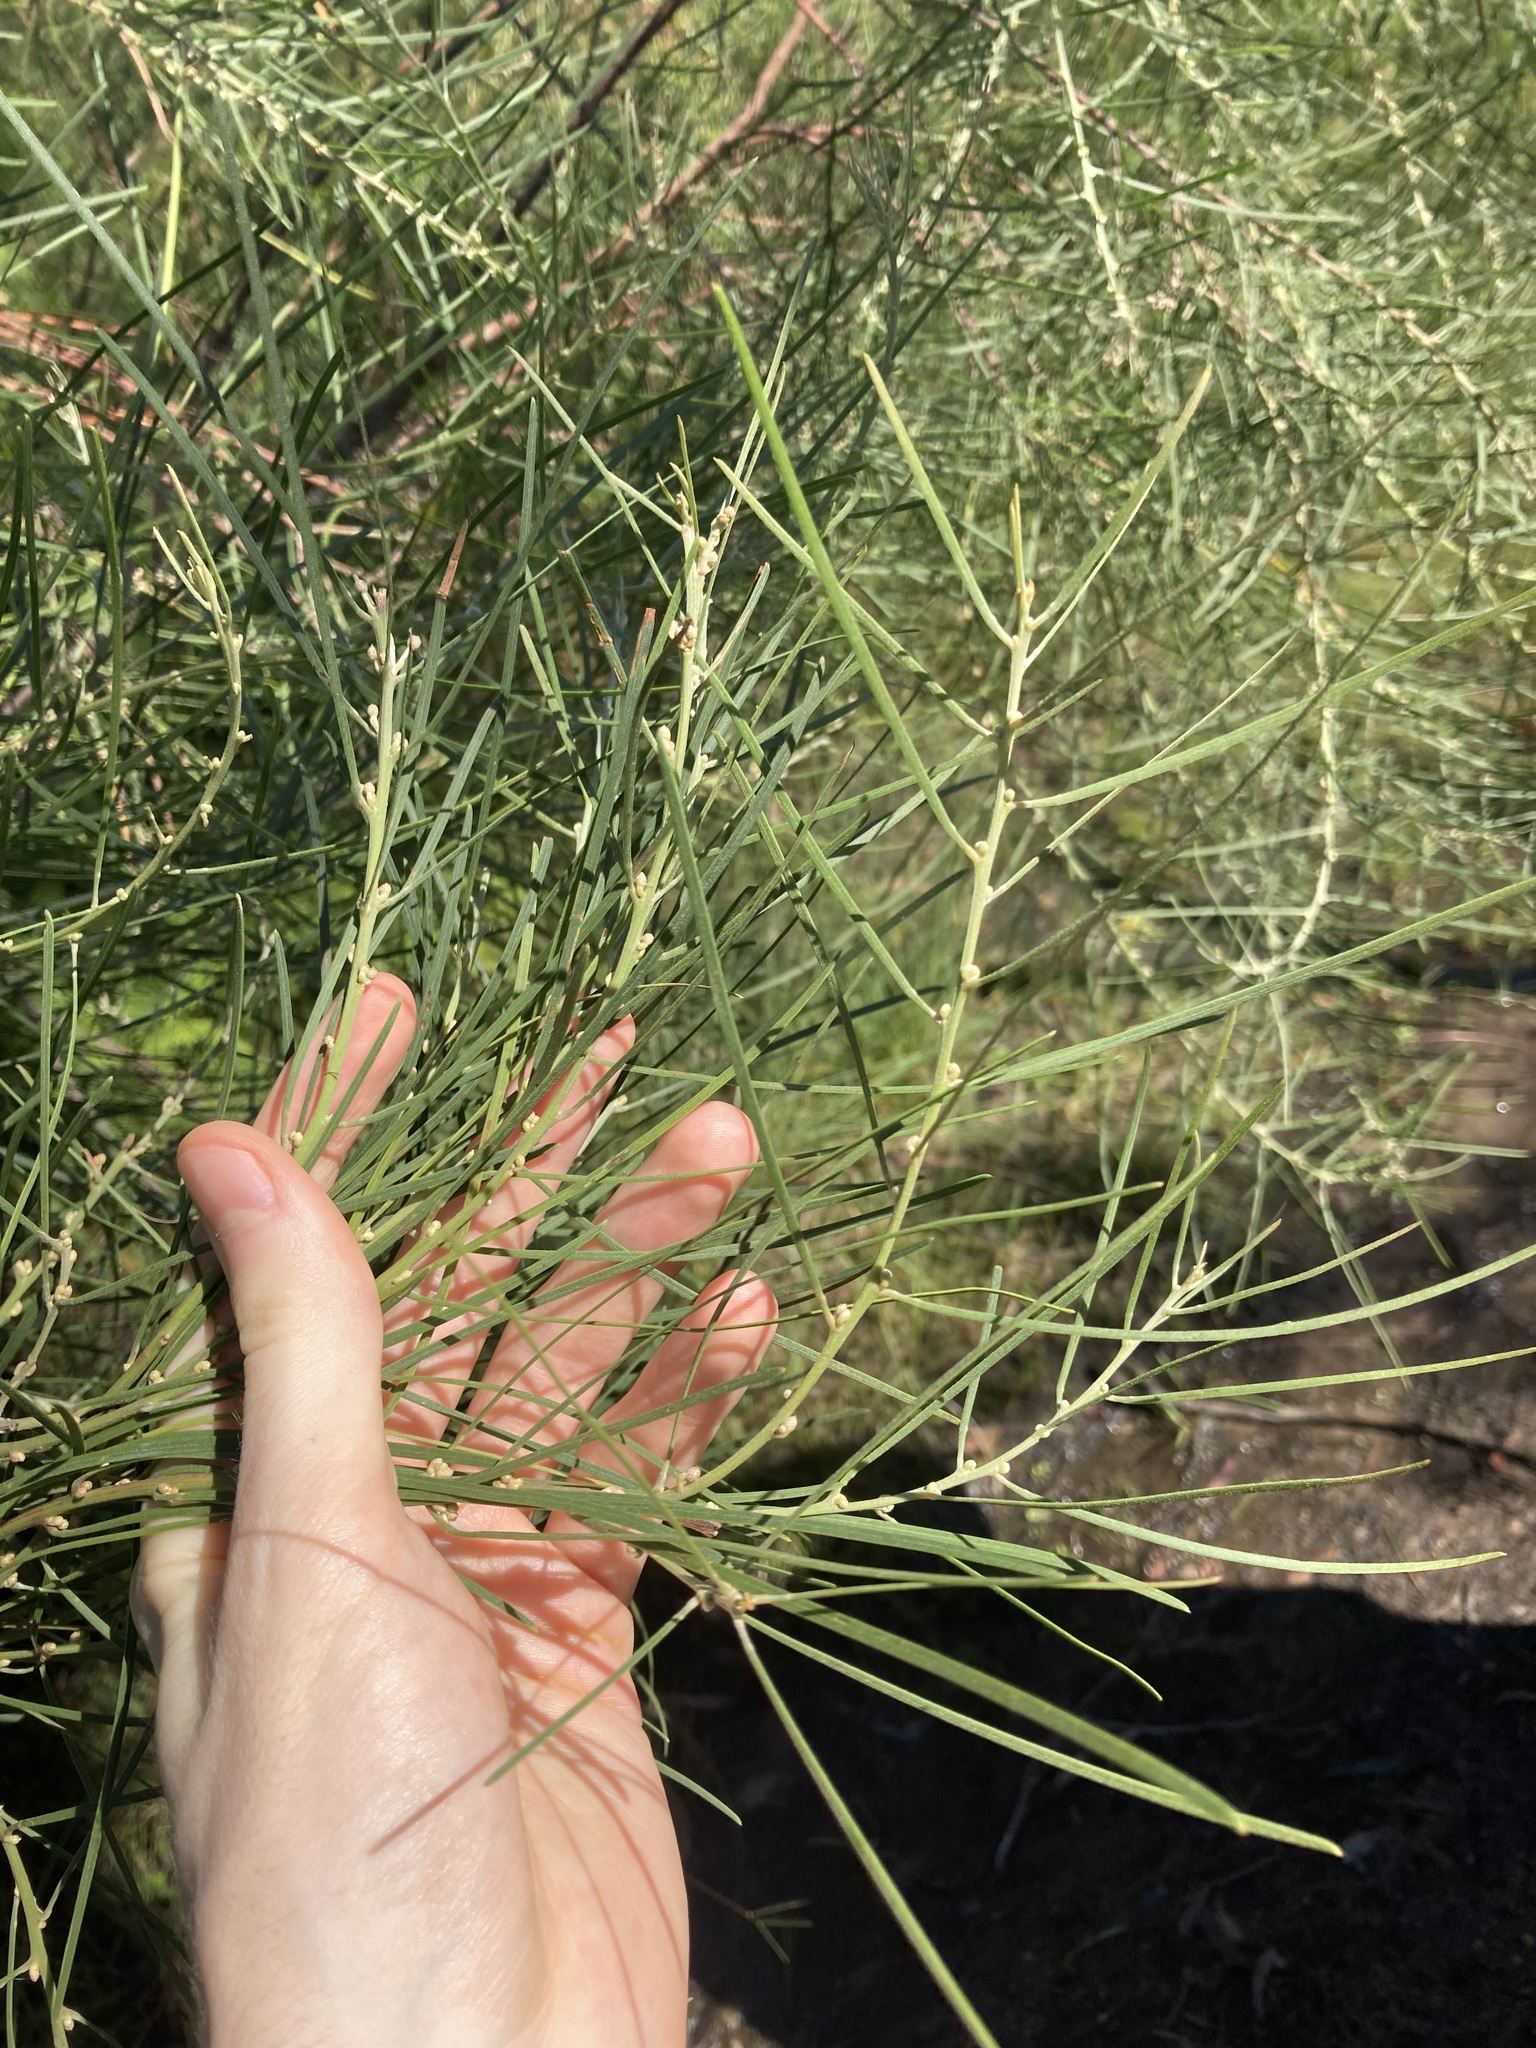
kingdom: Plantae
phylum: Tracheophyta
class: Magnoliopsida
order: Fabales
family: Fabaceae
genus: Acacia
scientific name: Acacia elongata
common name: Swamp wattle
